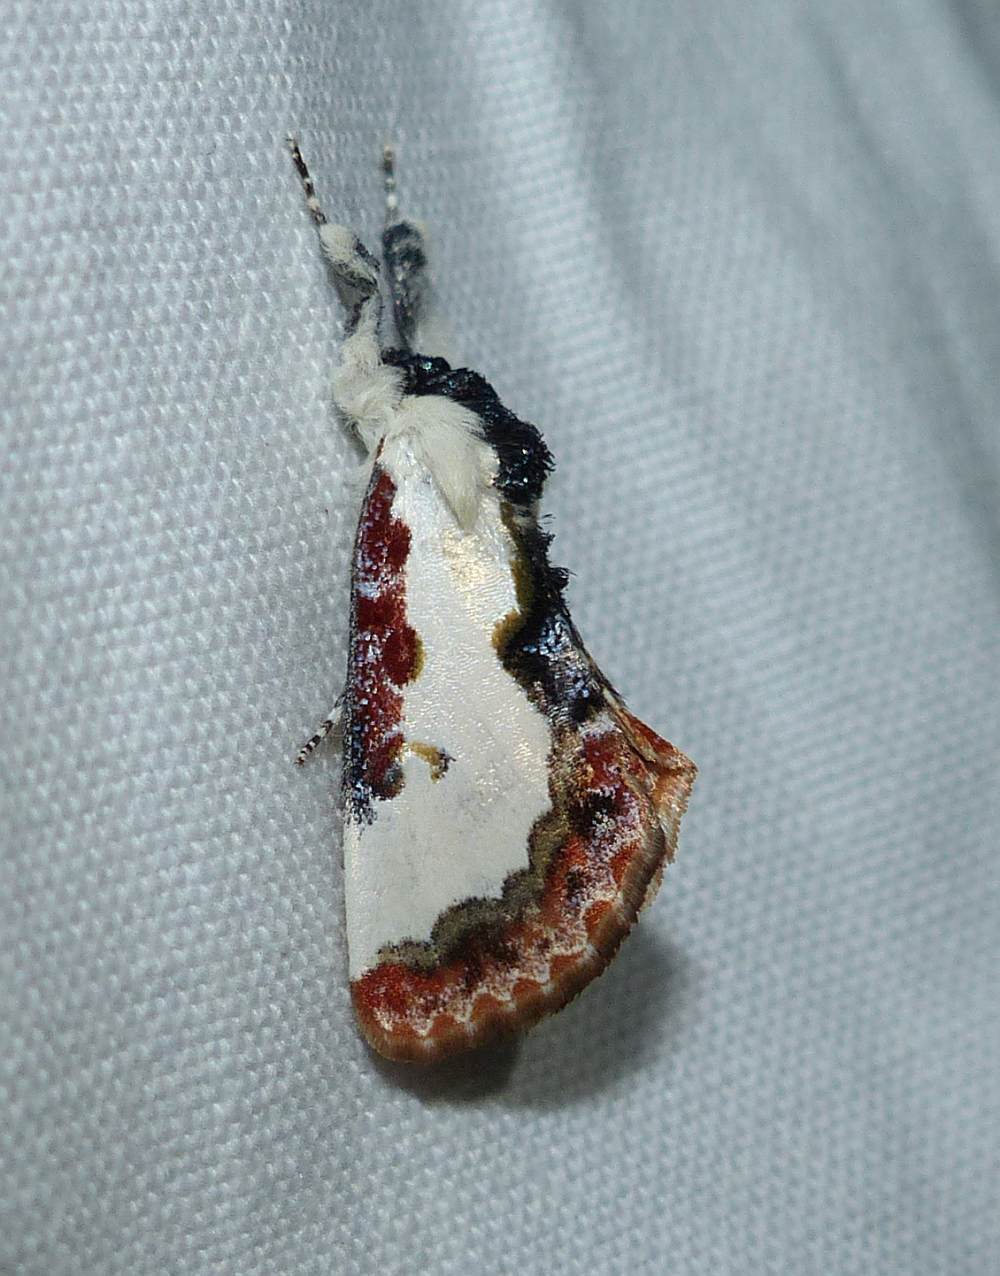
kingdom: Animalia
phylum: Arthropoda
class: Insecta
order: Lepidoptera
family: Noctuidae
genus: Eudryas
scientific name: Eudryas unio
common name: Pearly wood-nymph
